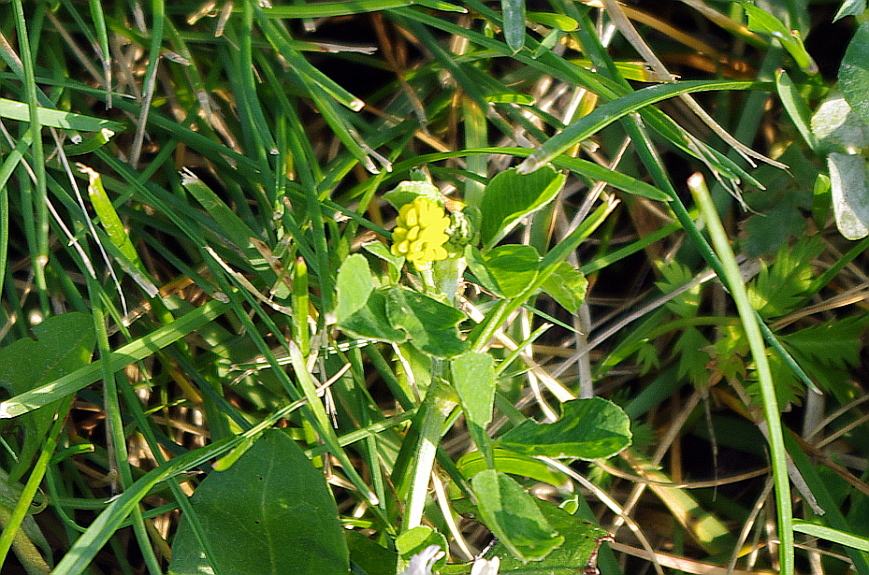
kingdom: Plantae
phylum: Tracheophyta
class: Magnoliopsida
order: Fabales
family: Fabaceae
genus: Medicago
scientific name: Medicago lupulina
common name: Black medick
